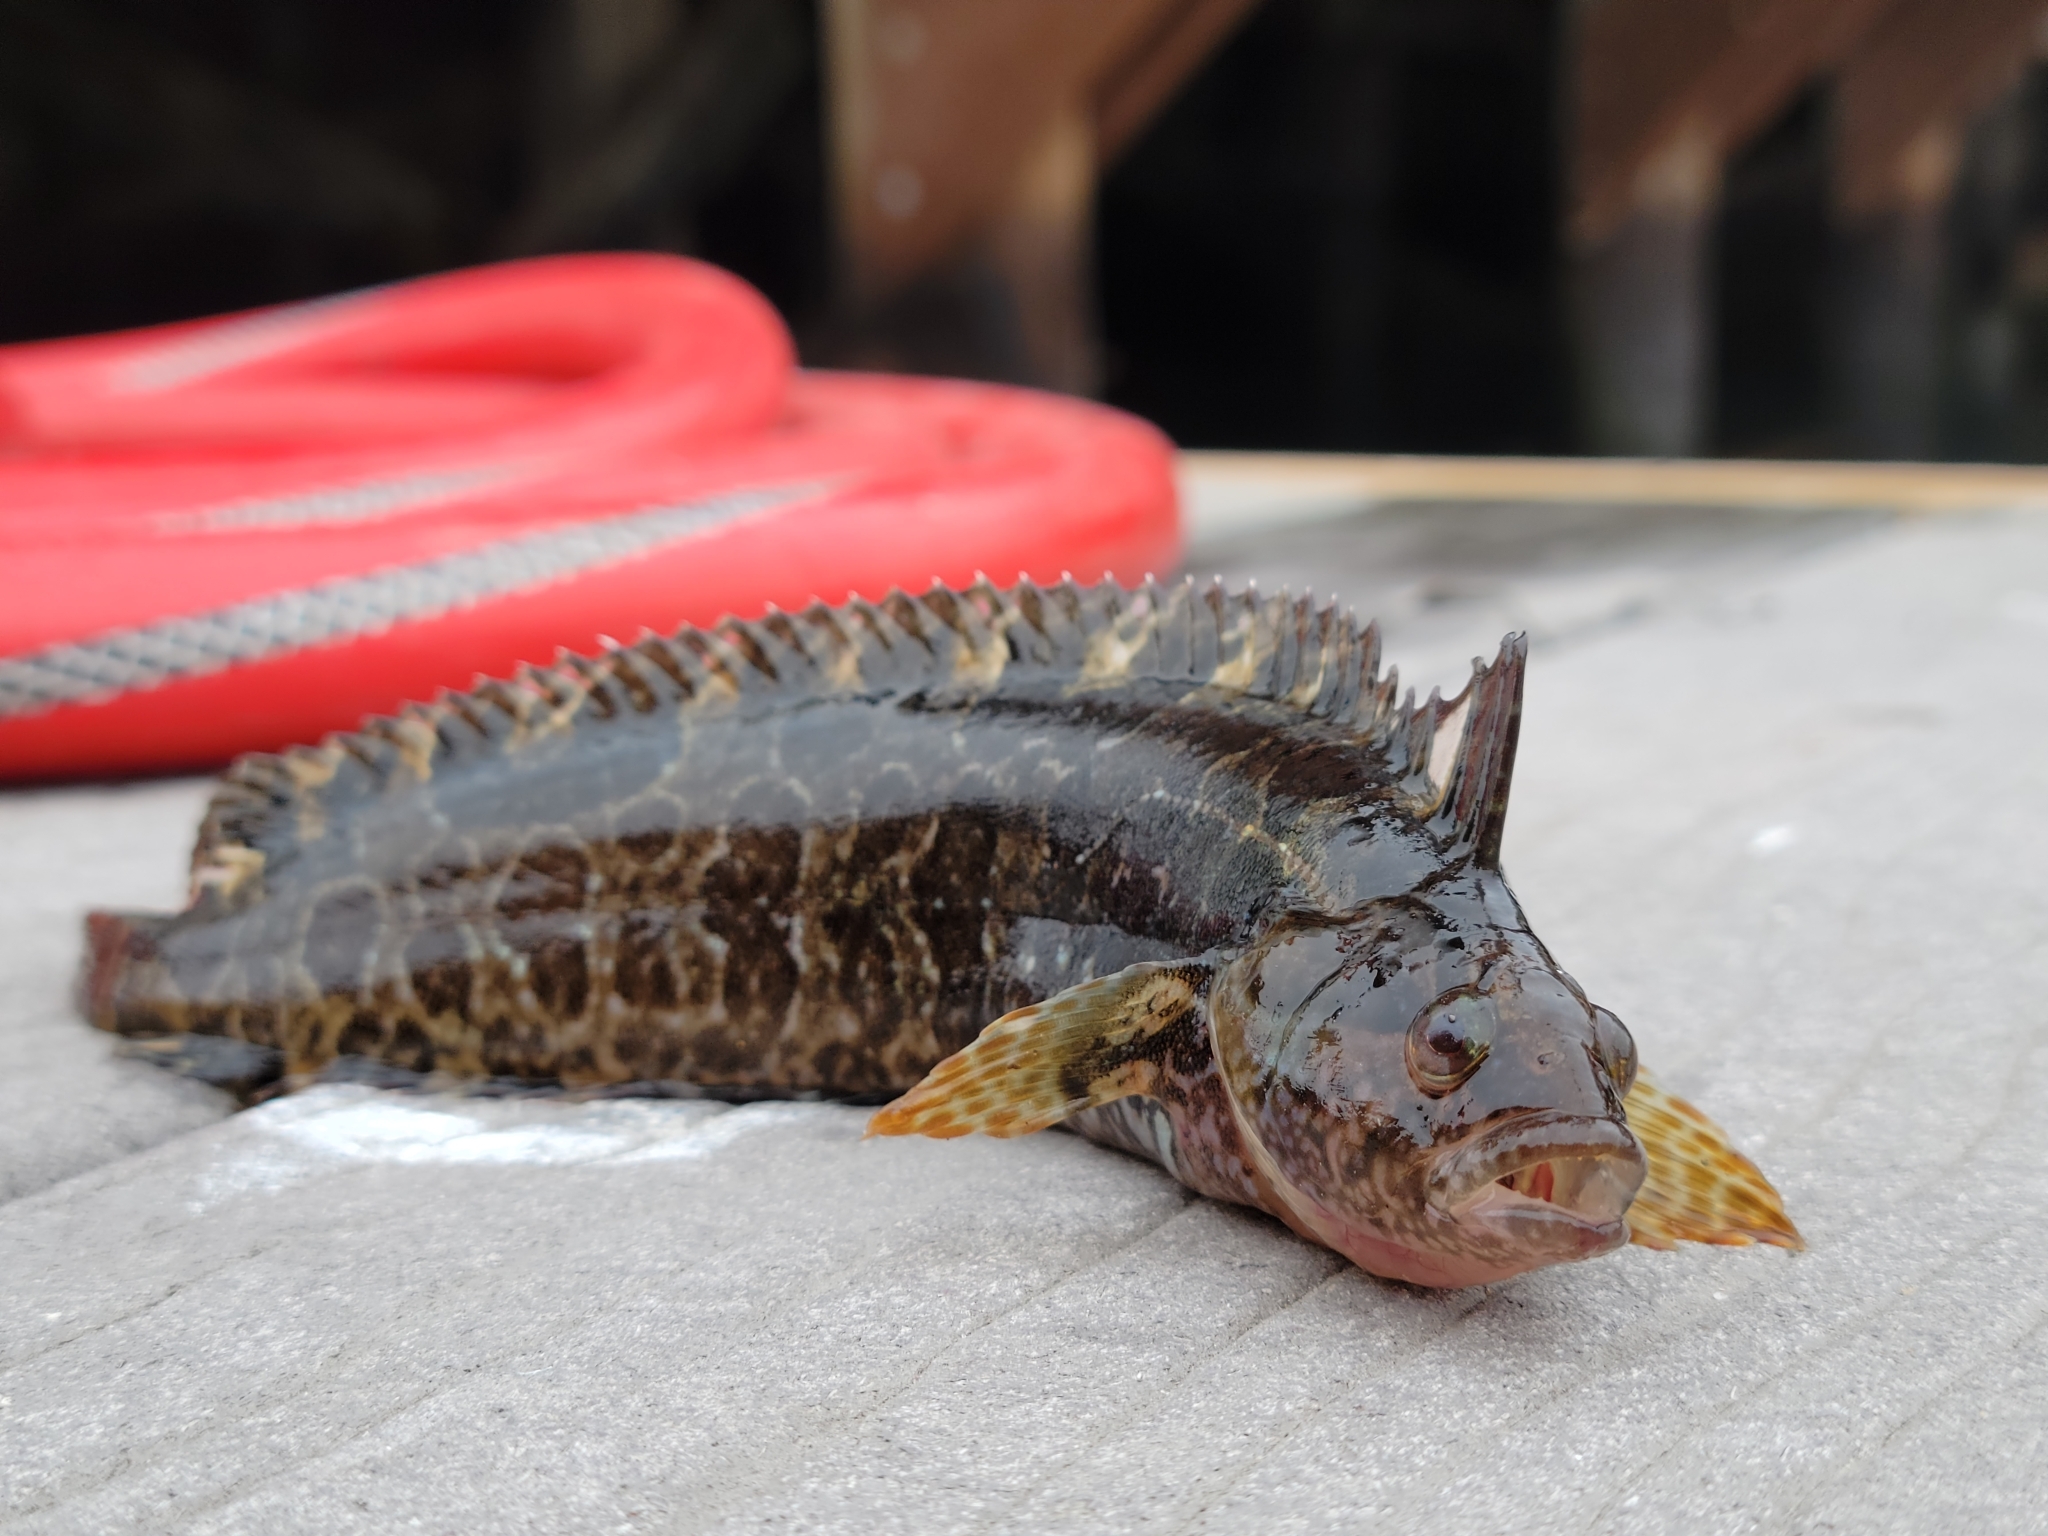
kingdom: Animalia
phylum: Chordata
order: Perciformes
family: Clinidae
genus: Gibbonsia
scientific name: Gibbonsia metzi
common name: Striped kelpfish
